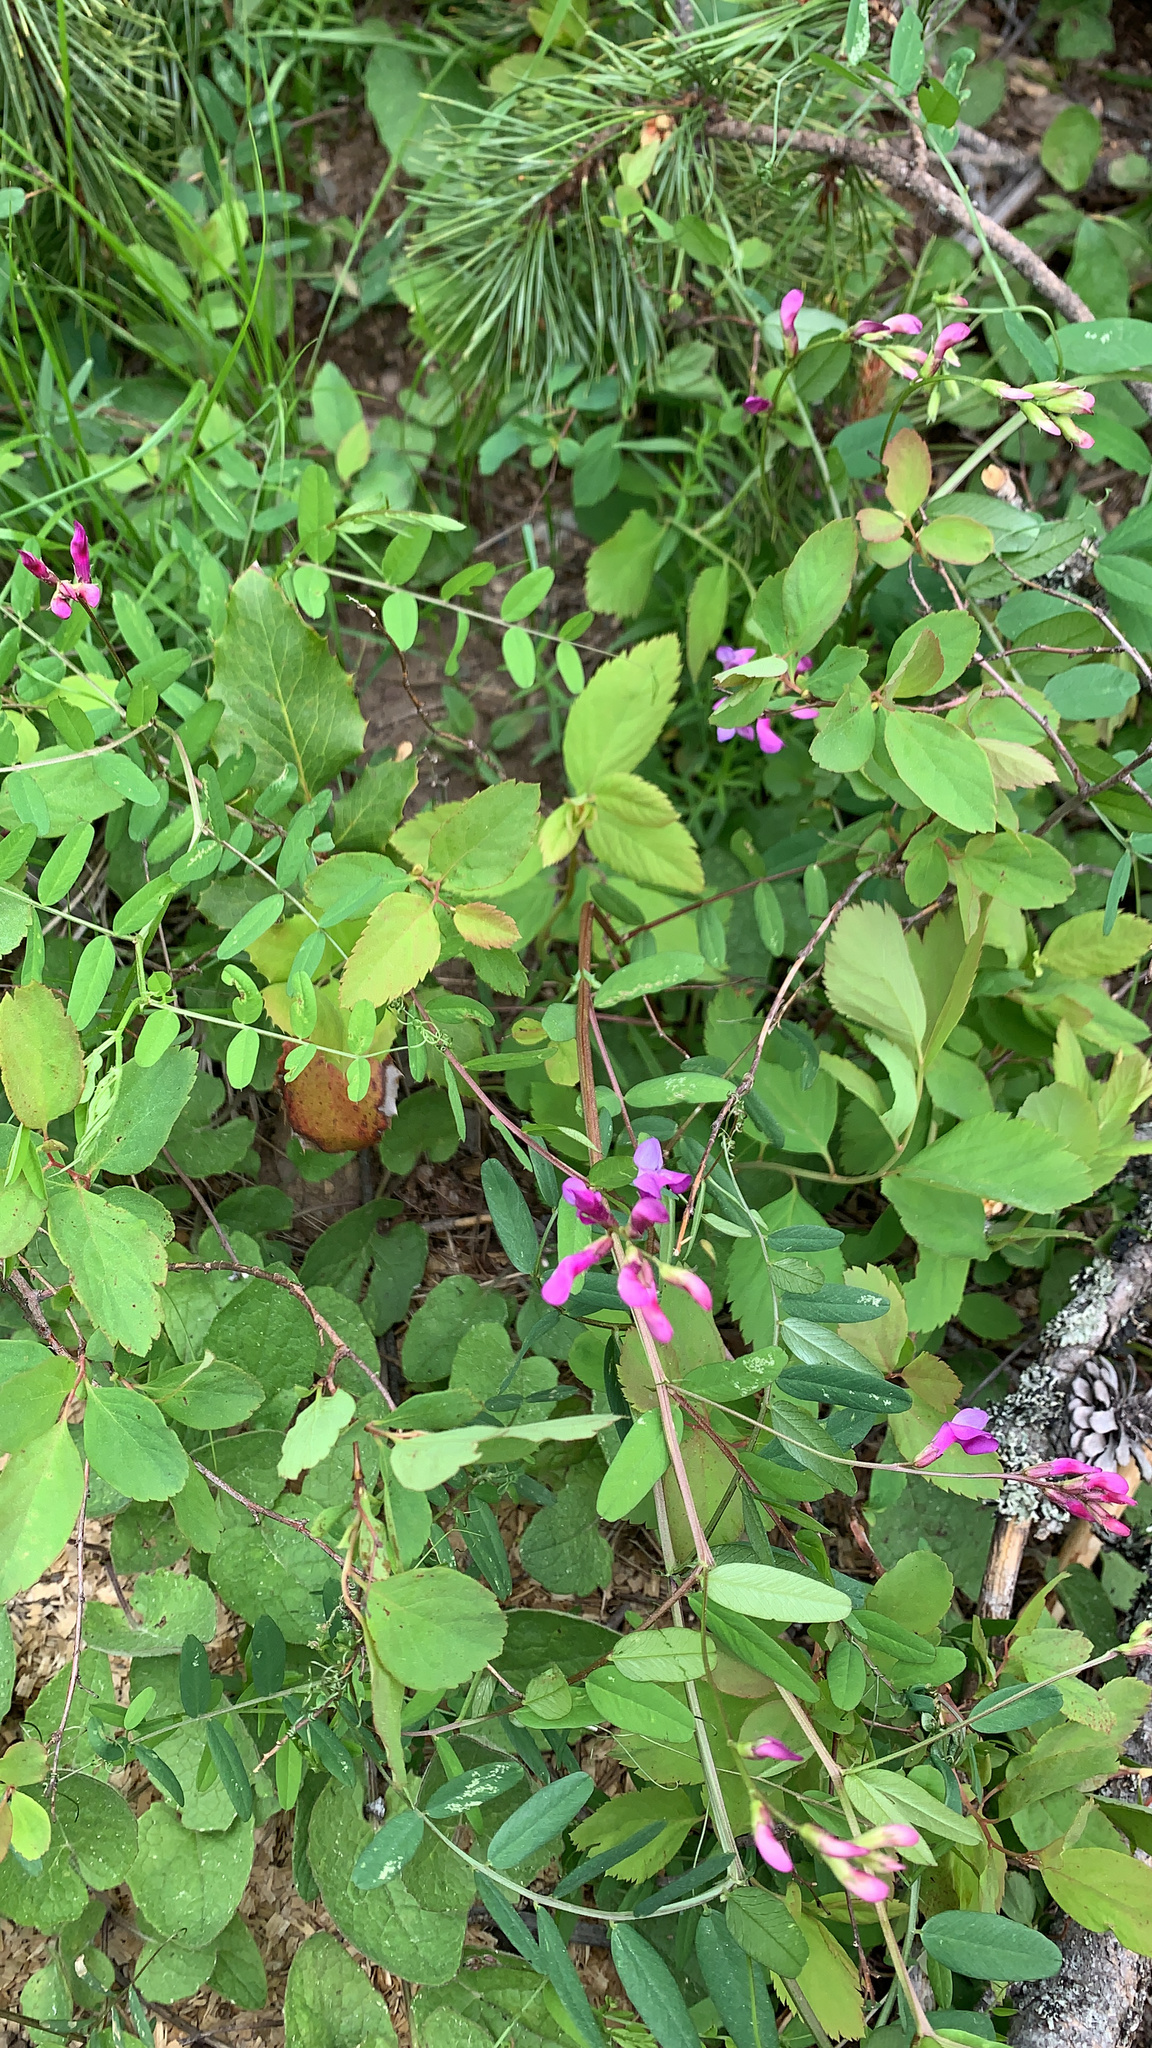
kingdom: Plantae
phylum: Tracheophyta
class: Magnoliopsida
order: Fabales
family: Fabaceae
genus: Vicia
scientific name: Vicia americana
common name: American vetch
